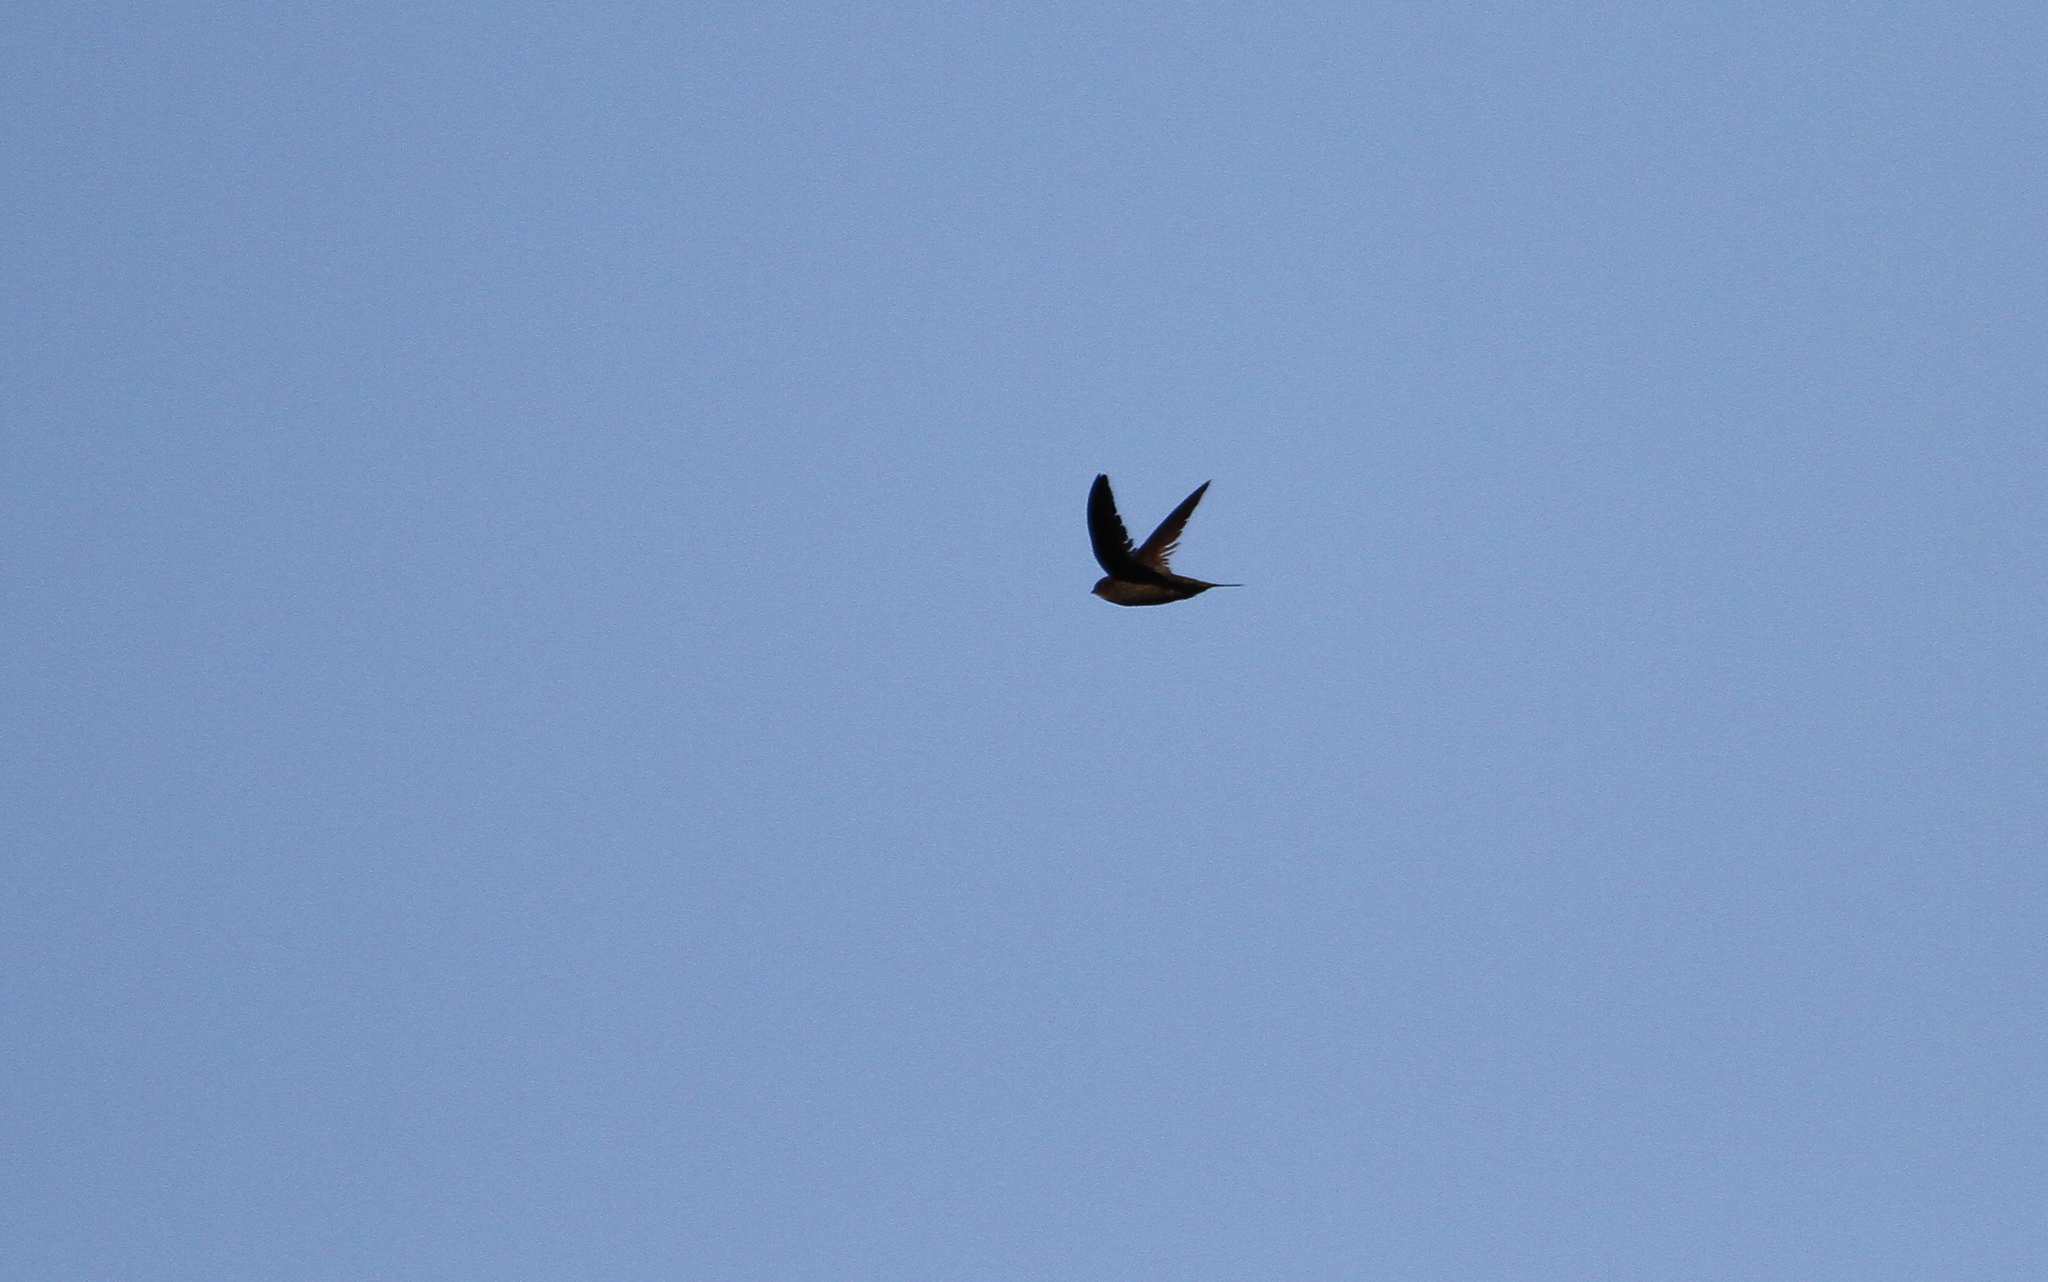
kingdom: Animalia
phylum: Chordata
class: Aves
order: Apodiformes
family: Apodidae
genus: Apus
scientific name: Apus unicolor
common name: Plain swift
